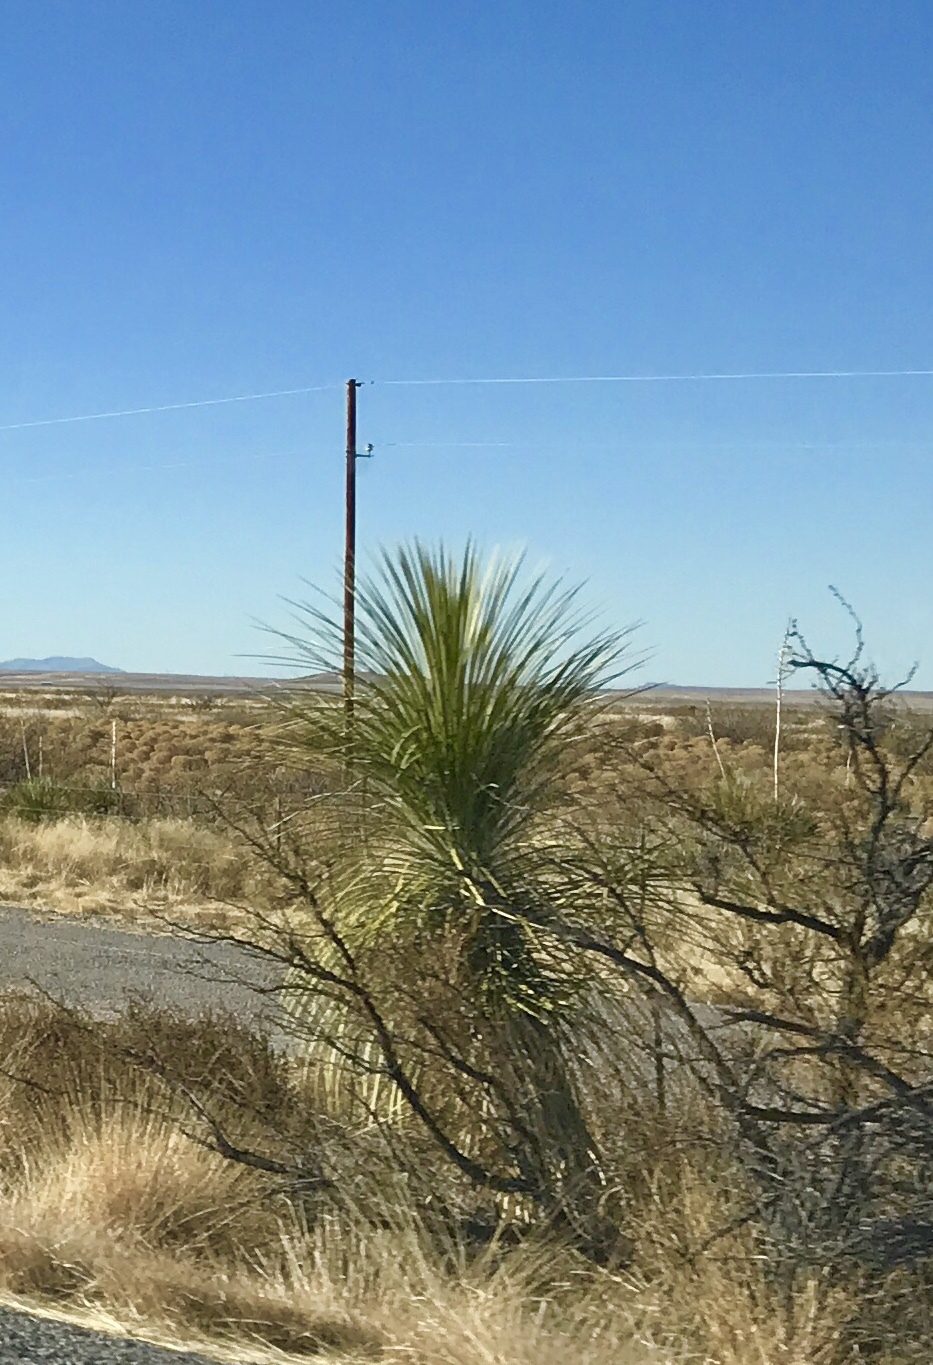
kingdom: Plantae
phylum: Tracheophyta
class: Liliopsida
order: Asparagales
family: Asparagaceae
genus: Yucca
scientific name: Yucca elata
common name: Palmella
